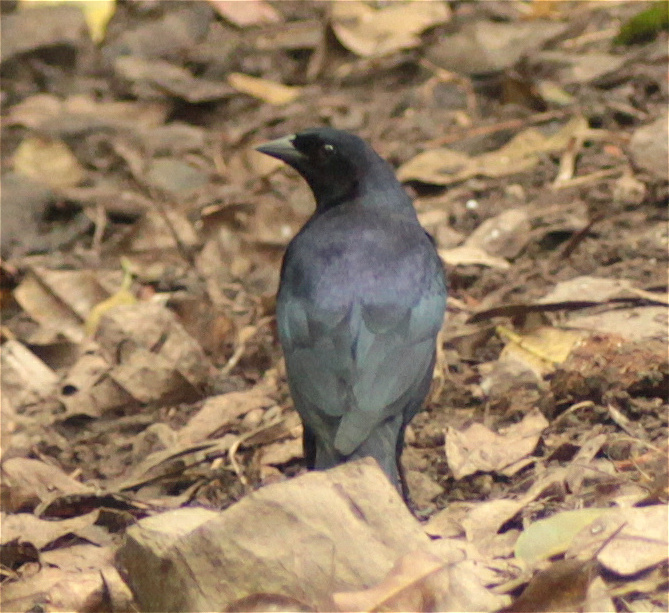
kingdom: Animalia
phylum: Chordata
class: Aves
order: Passeriformes
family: Icteridae
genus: Molothrus
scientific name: Molothrus bonariensis
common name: Shiny cowbird
